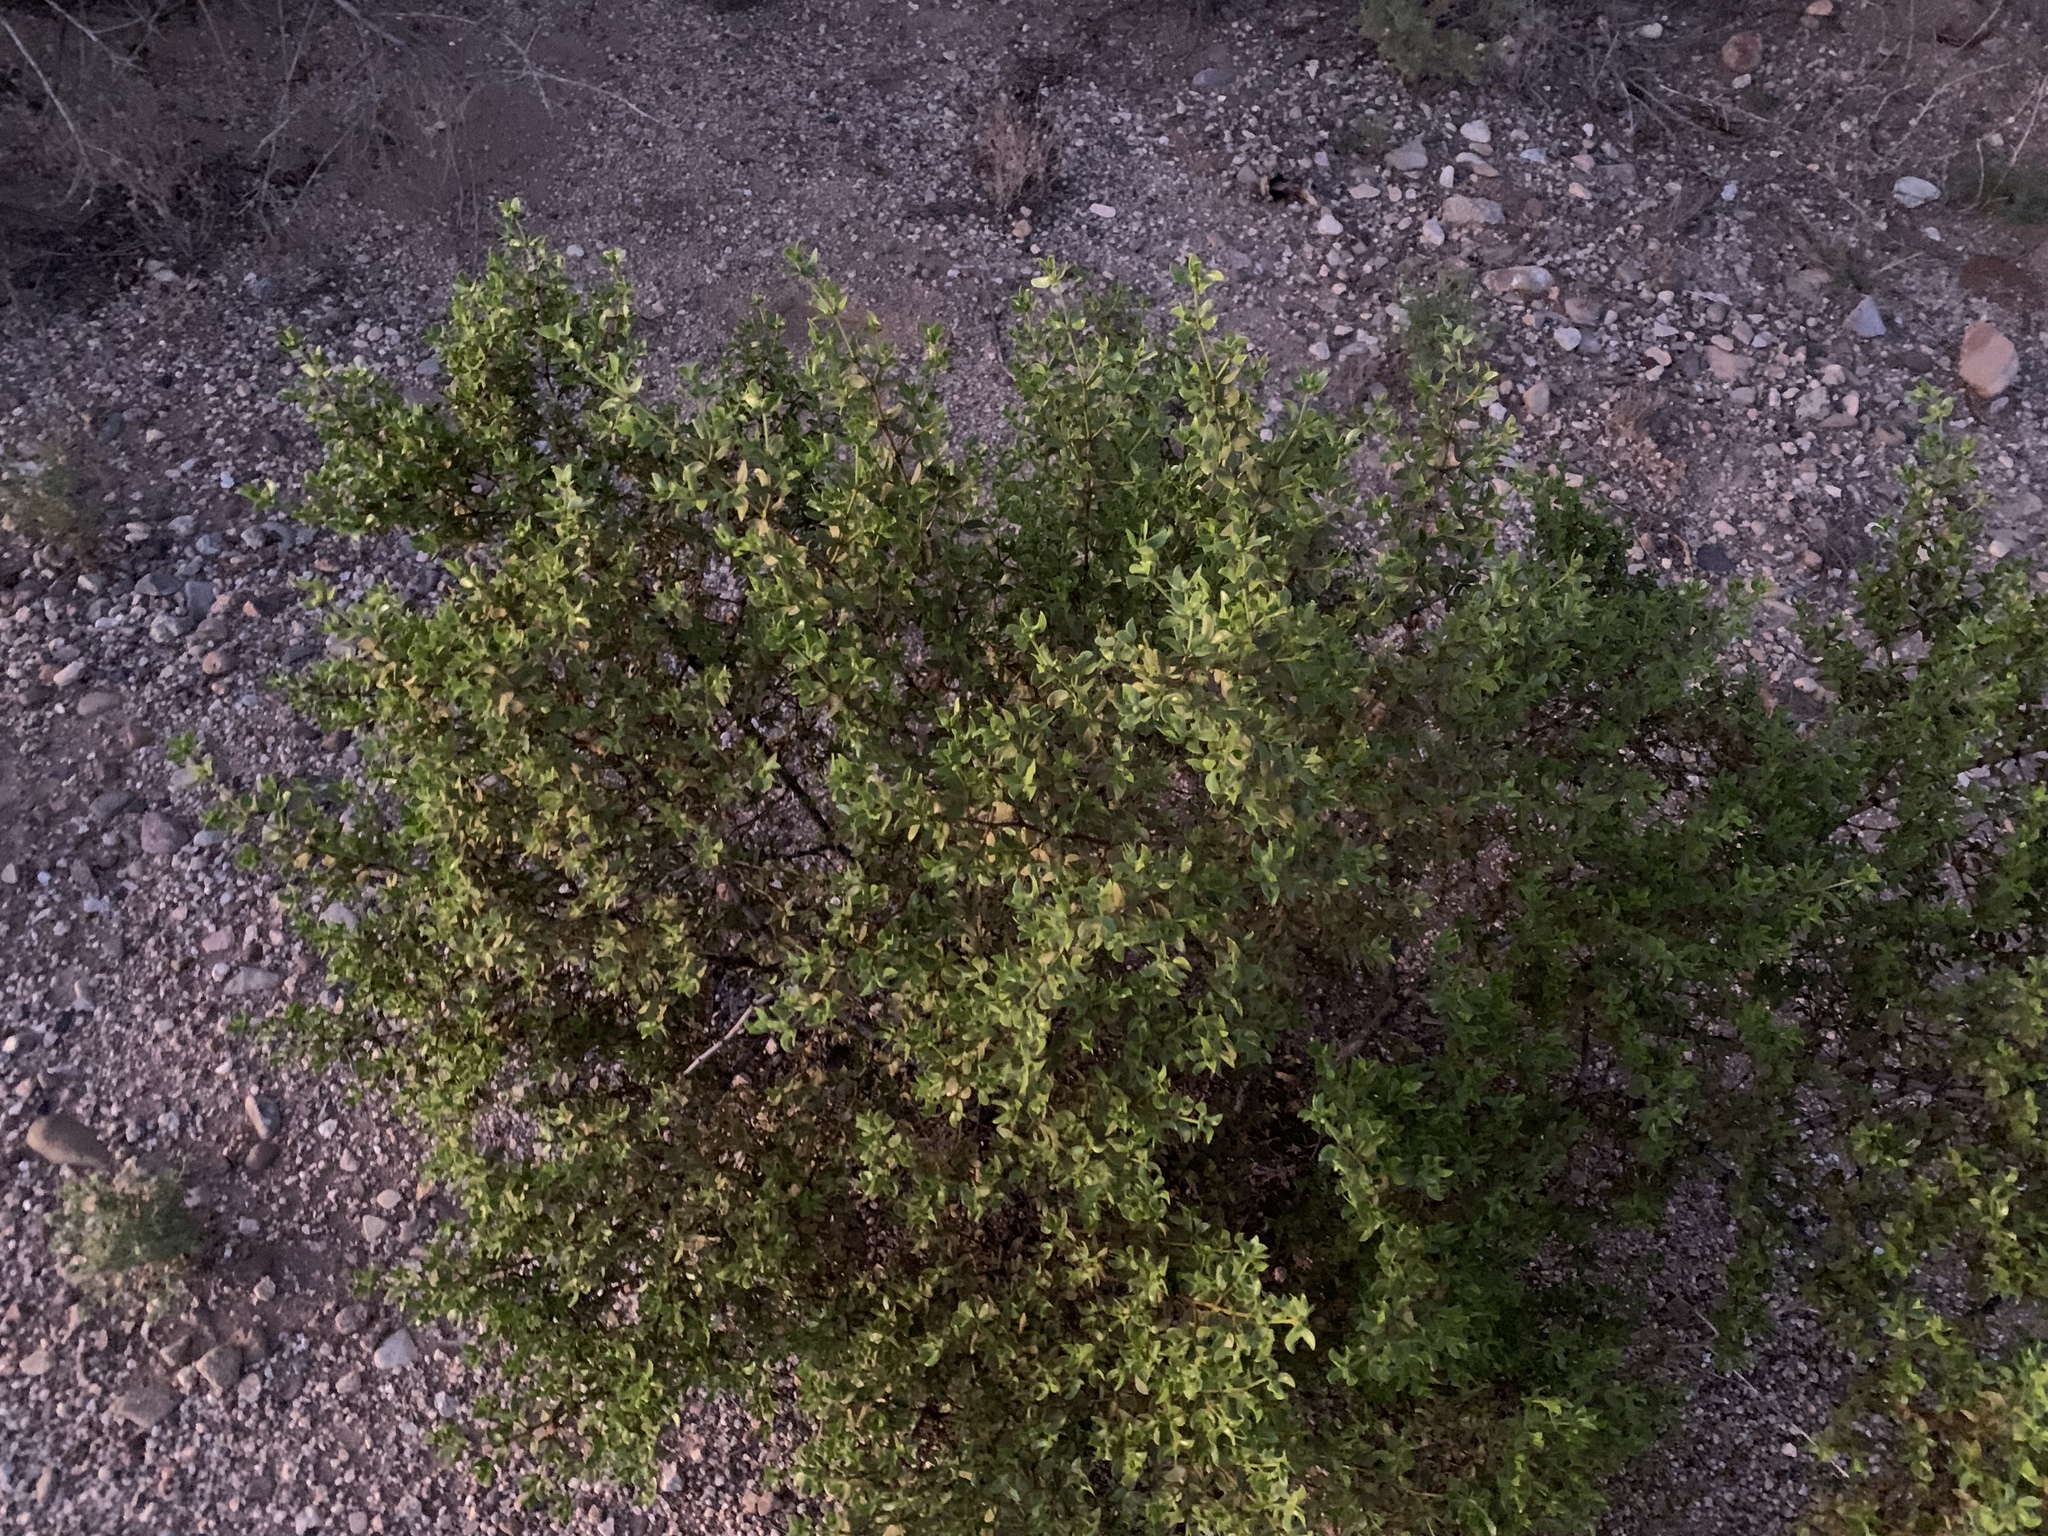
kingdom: Plantae
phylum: Tracheophyta
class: Magnoliopsida
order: Zygophyllales
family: Zygophyllaceae
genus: Larrea
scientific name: Larrea tridentata
